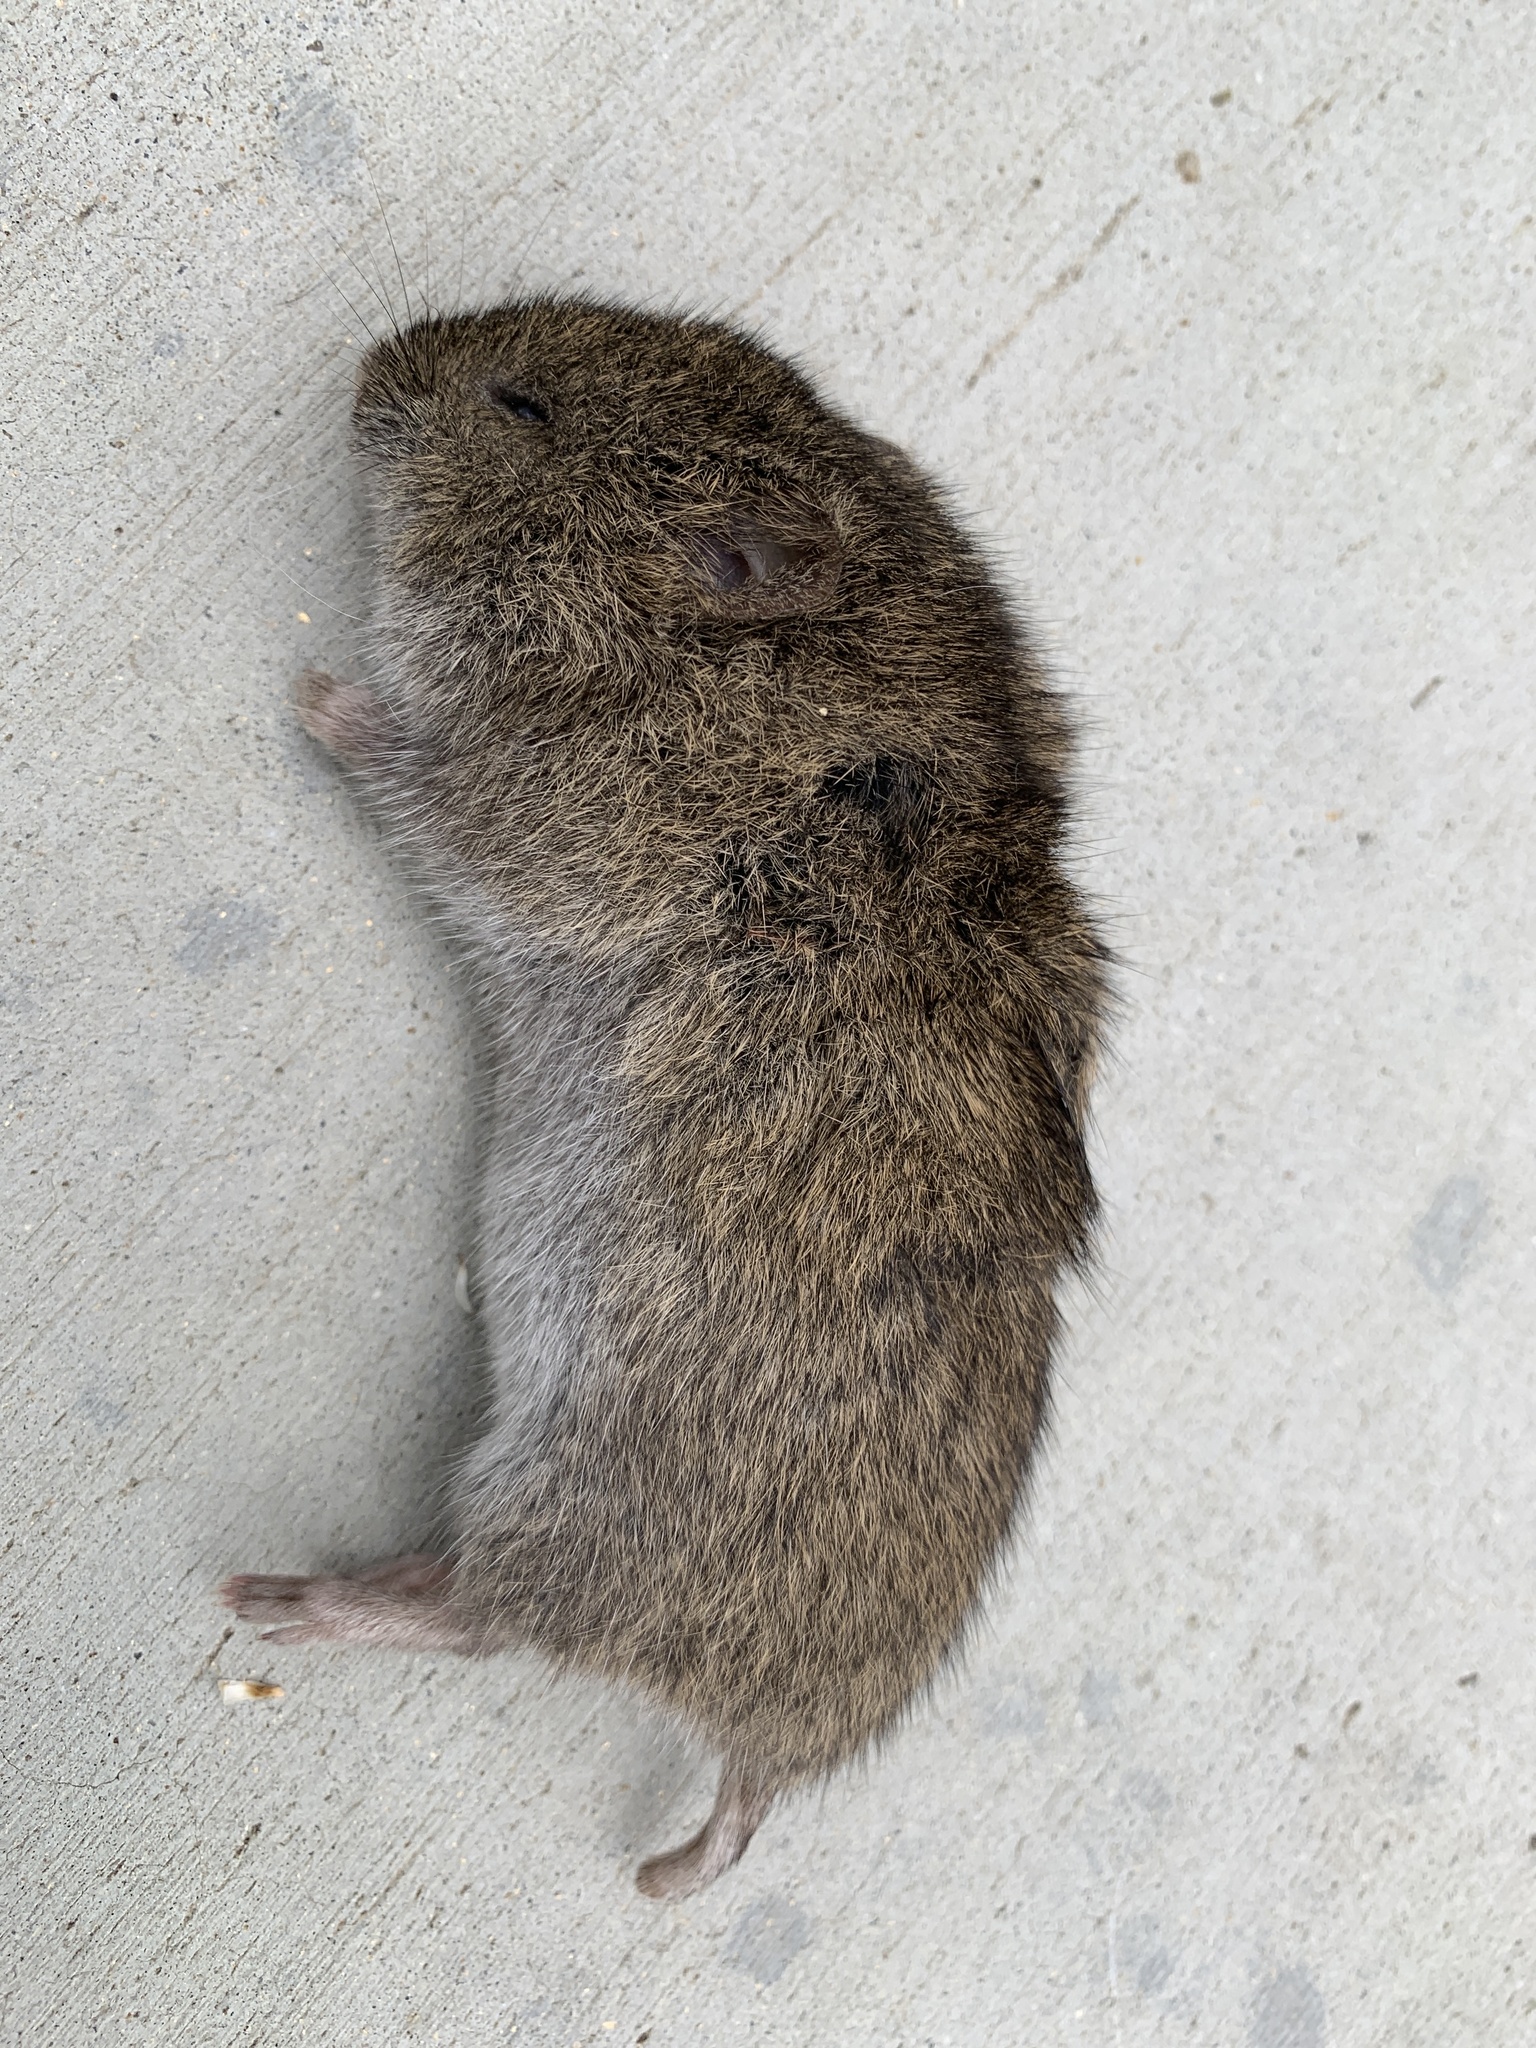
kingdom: Animalia
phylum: Chordata
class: Mammalia
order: Rodentia
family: Cricetidae
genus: Microtus
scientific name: Microtus californicus
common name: California vole
